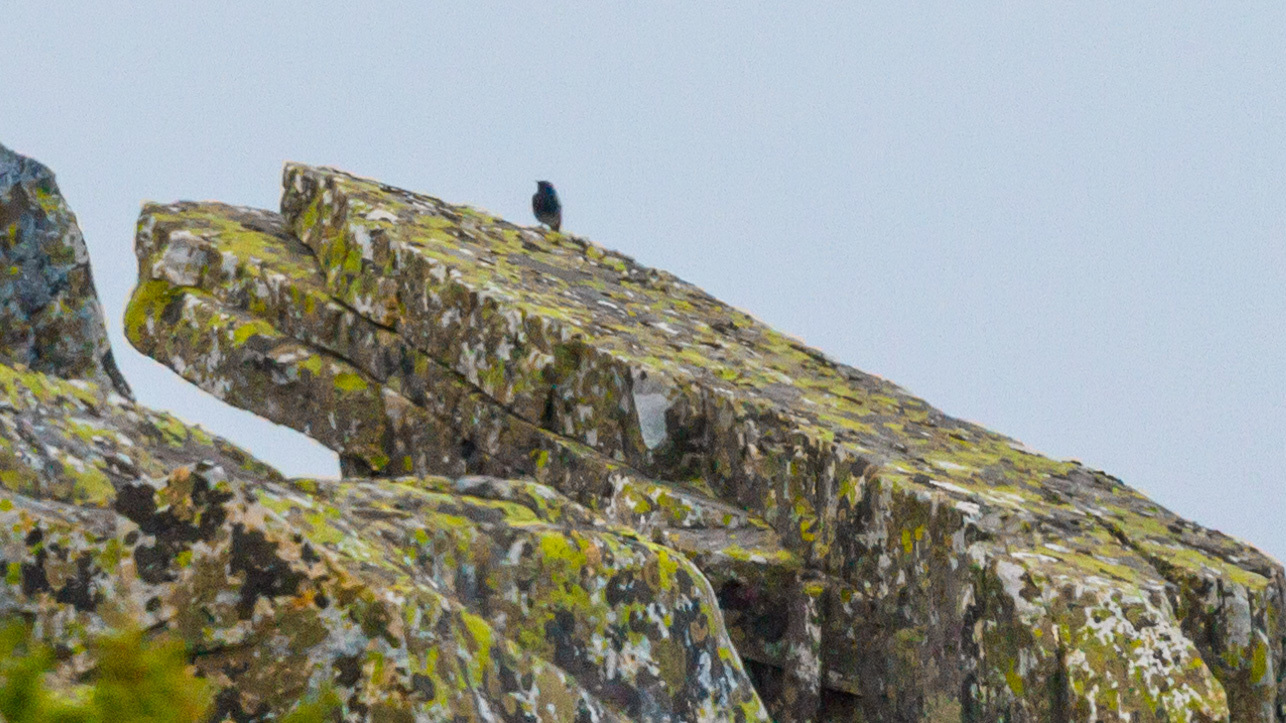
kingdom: Animalia
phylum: Chordata
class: Aves
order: Passeriformes
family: Muscicapidae
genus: Phoenicurus
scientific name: Phoenicurus ochruros
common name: Black redstart
